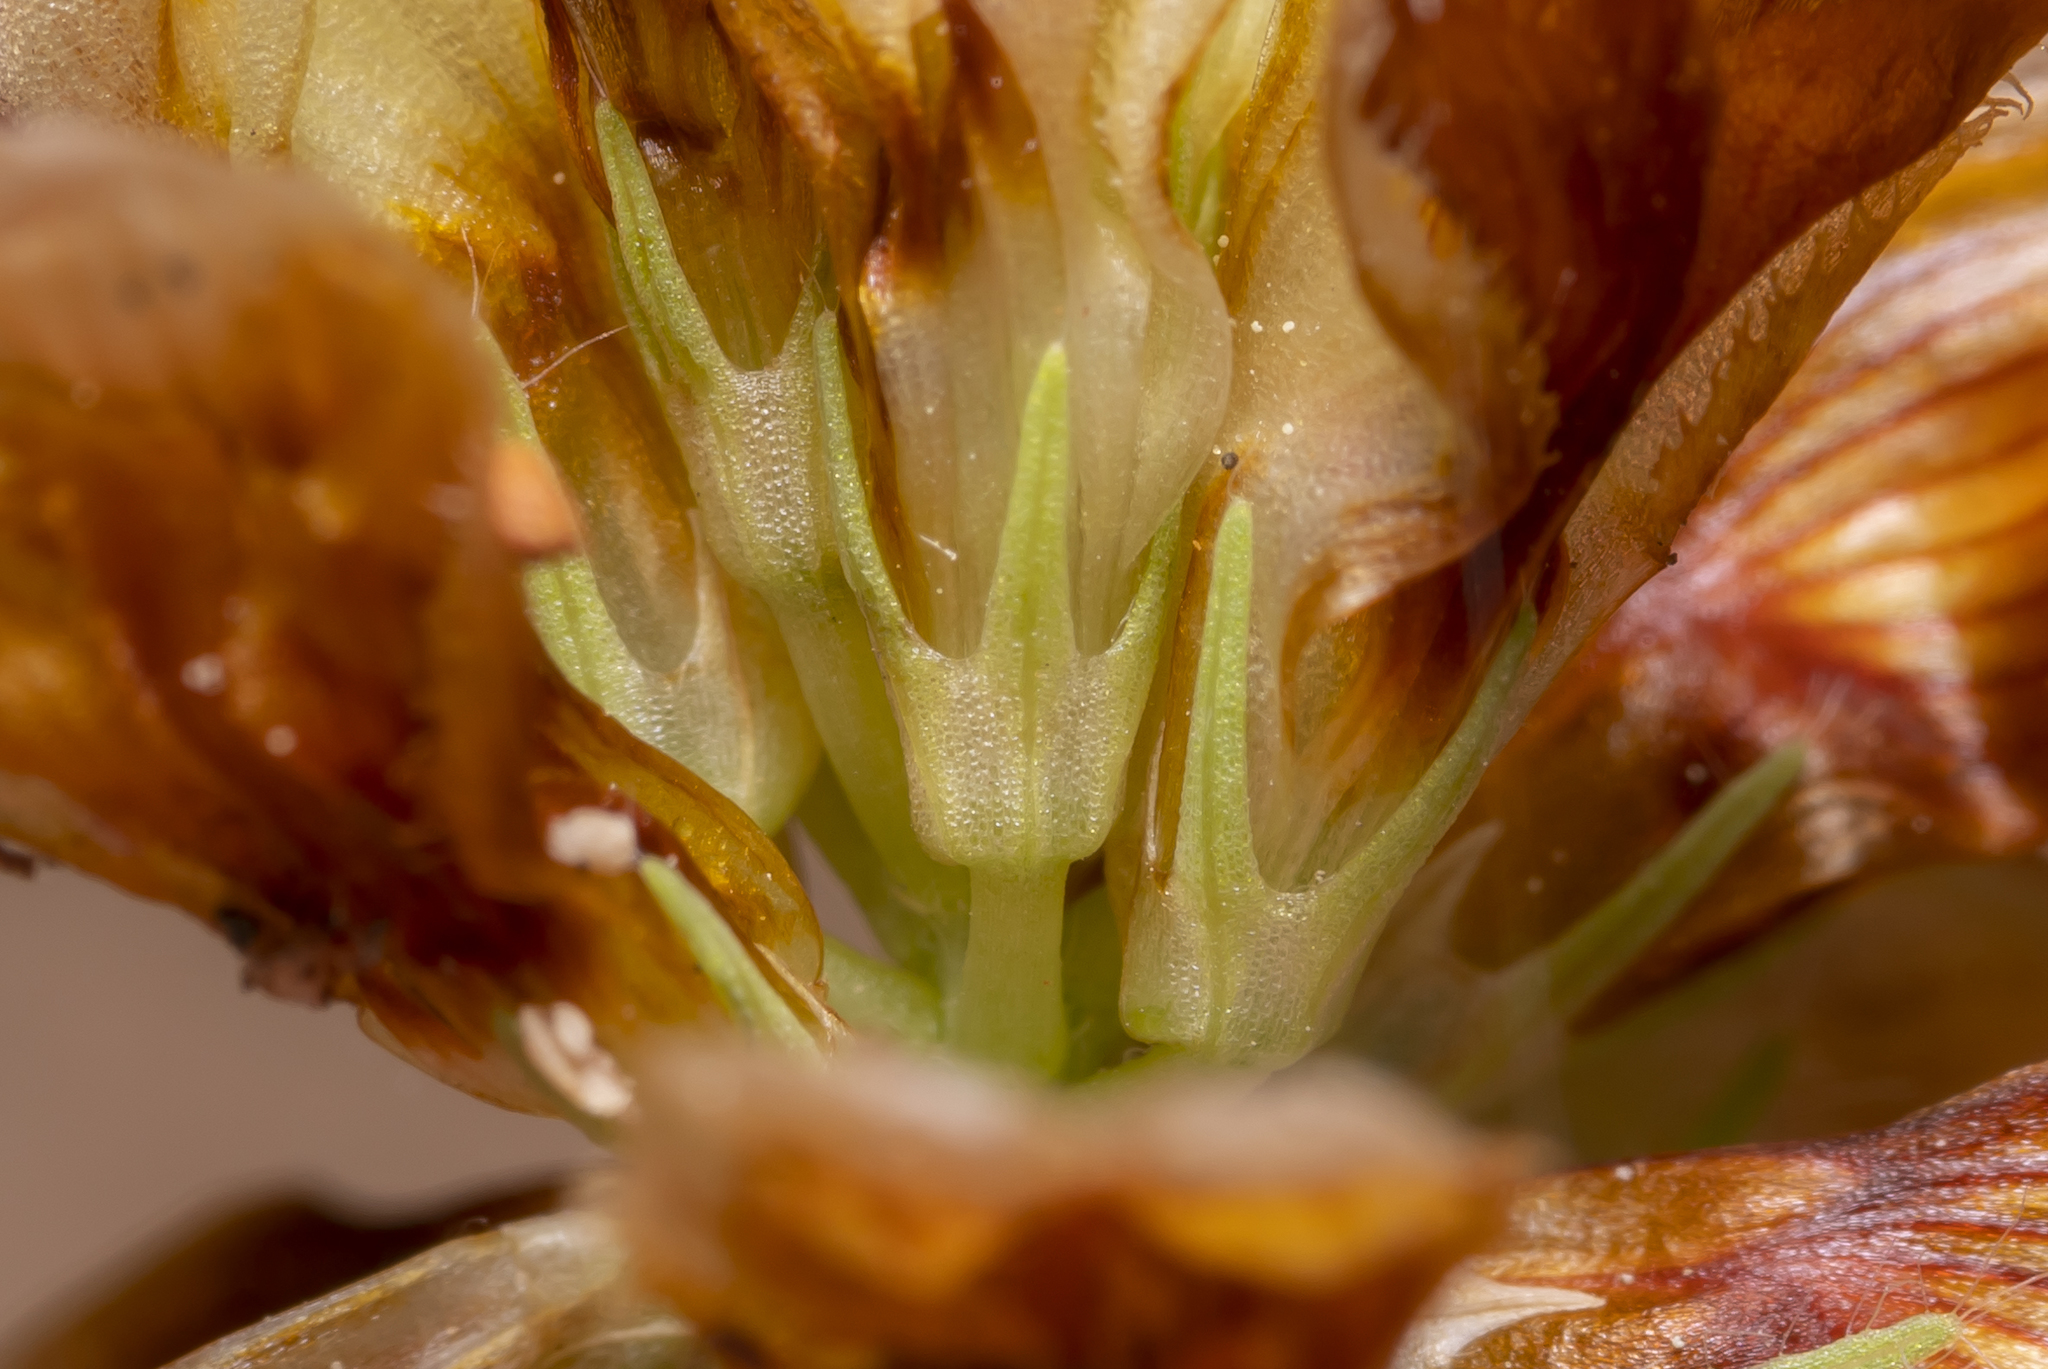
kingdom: Plantae
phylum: Tracheophyta
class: Magnoliopsida
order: Fabales
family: Fabaceae
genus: Trifolium
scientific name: Trifolium boissieri
